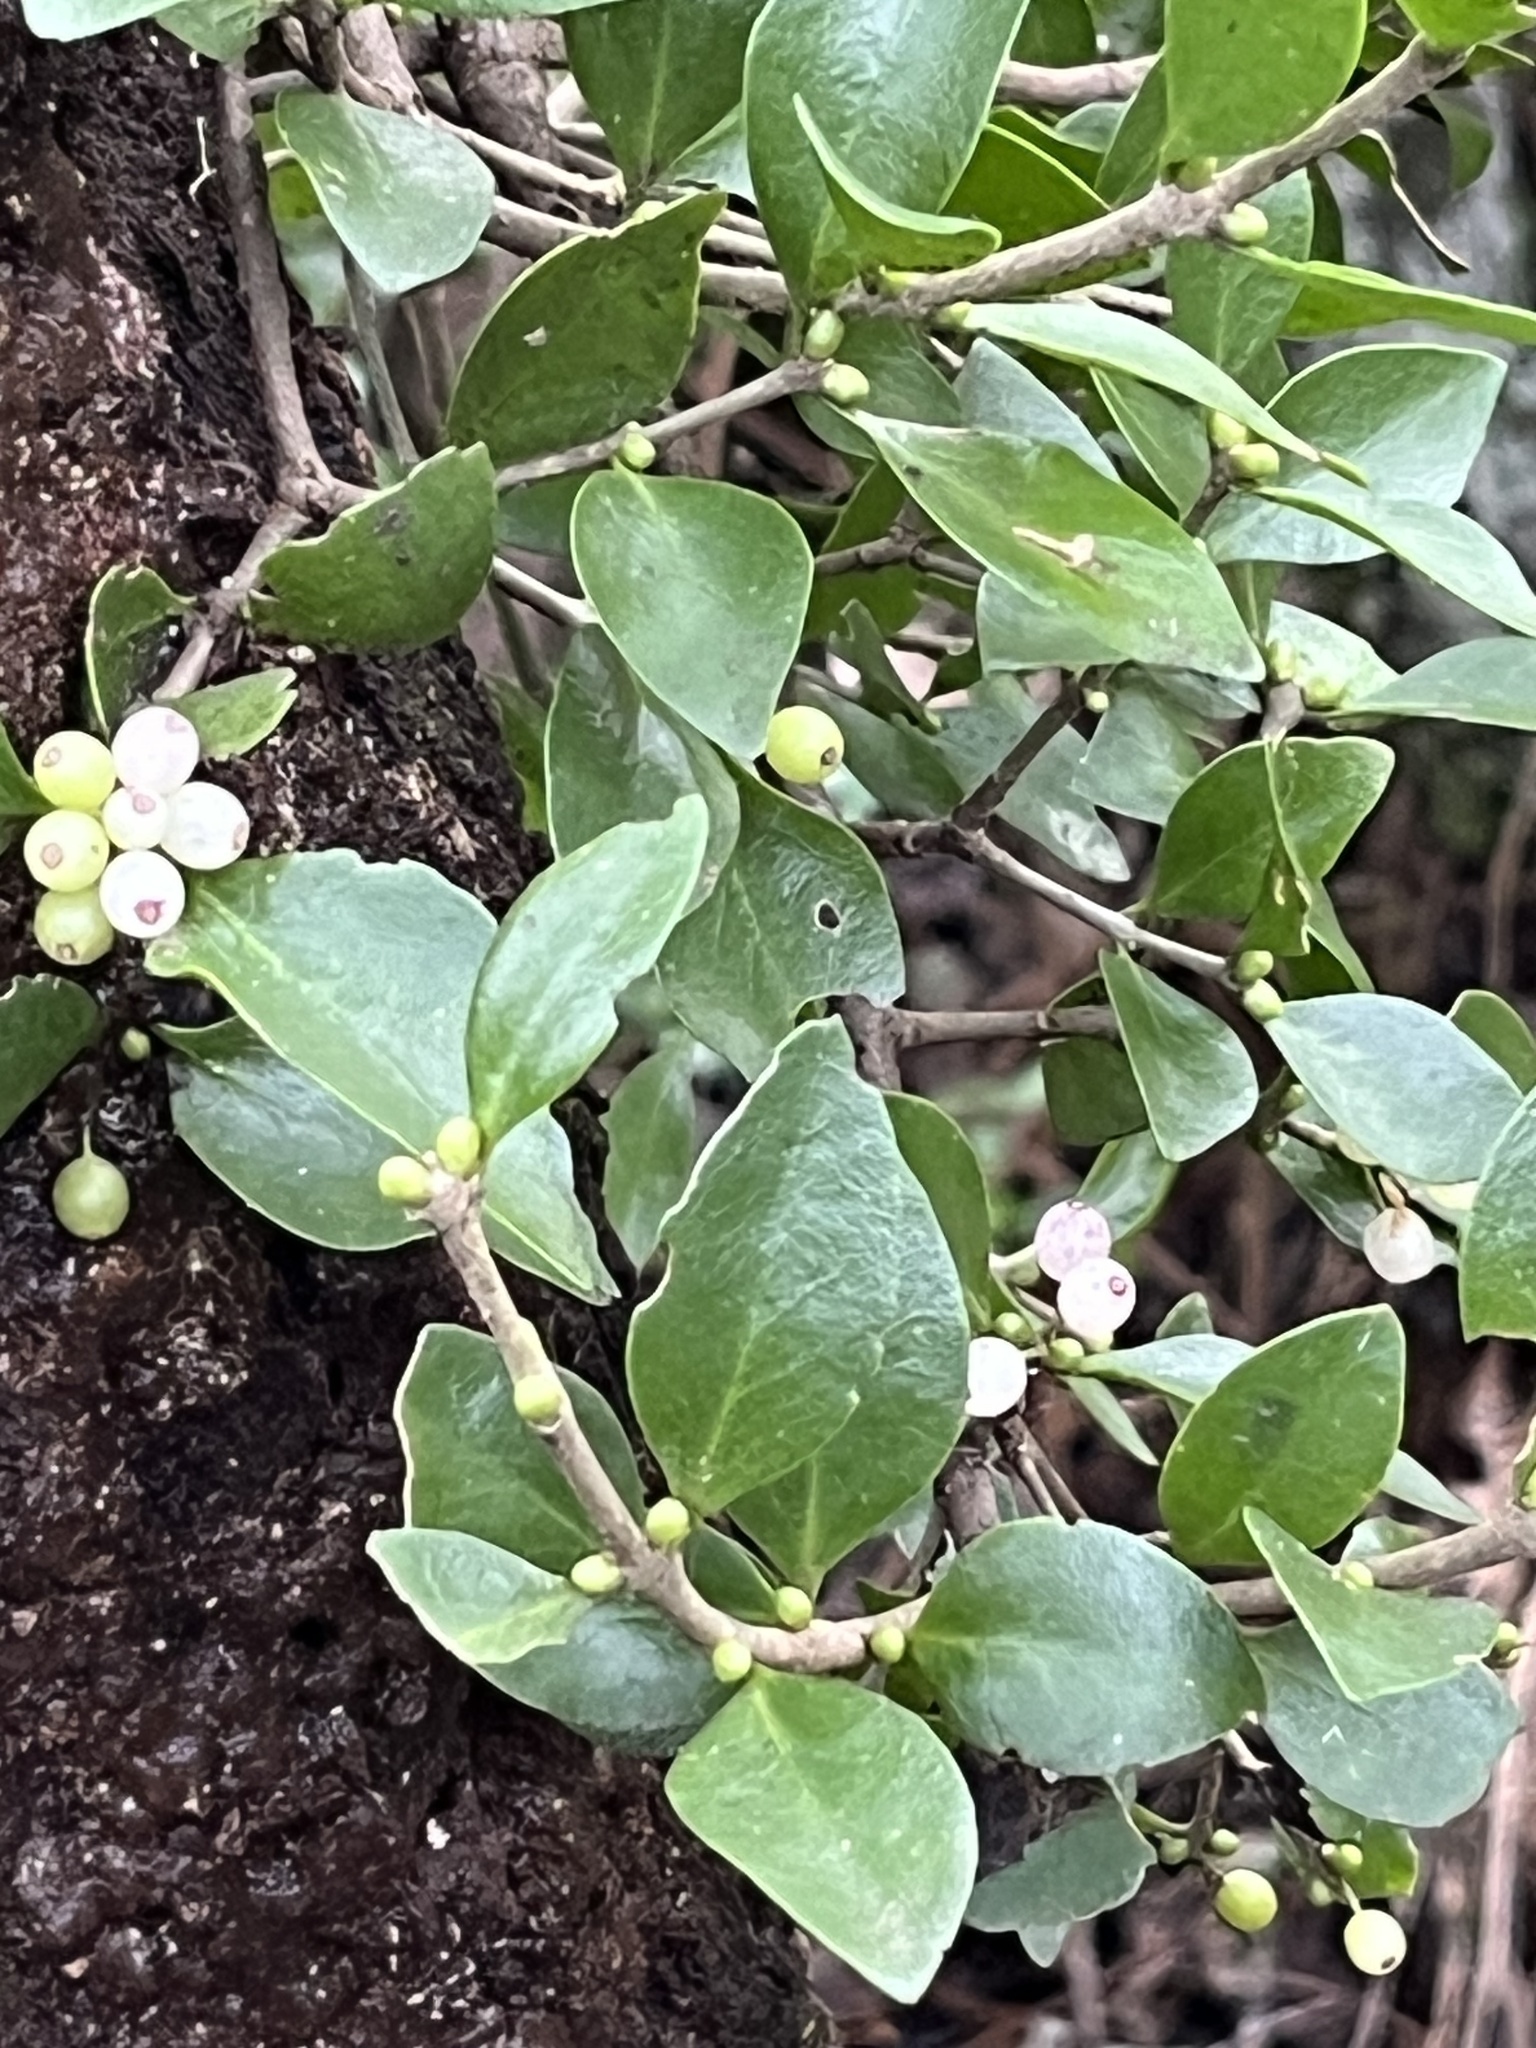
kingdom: Plantae
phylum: Tracheophyta
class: Magnoliopsida
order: Santalales
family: Loranthaceae
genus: Tupeia
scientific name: Tupeia antarctica
